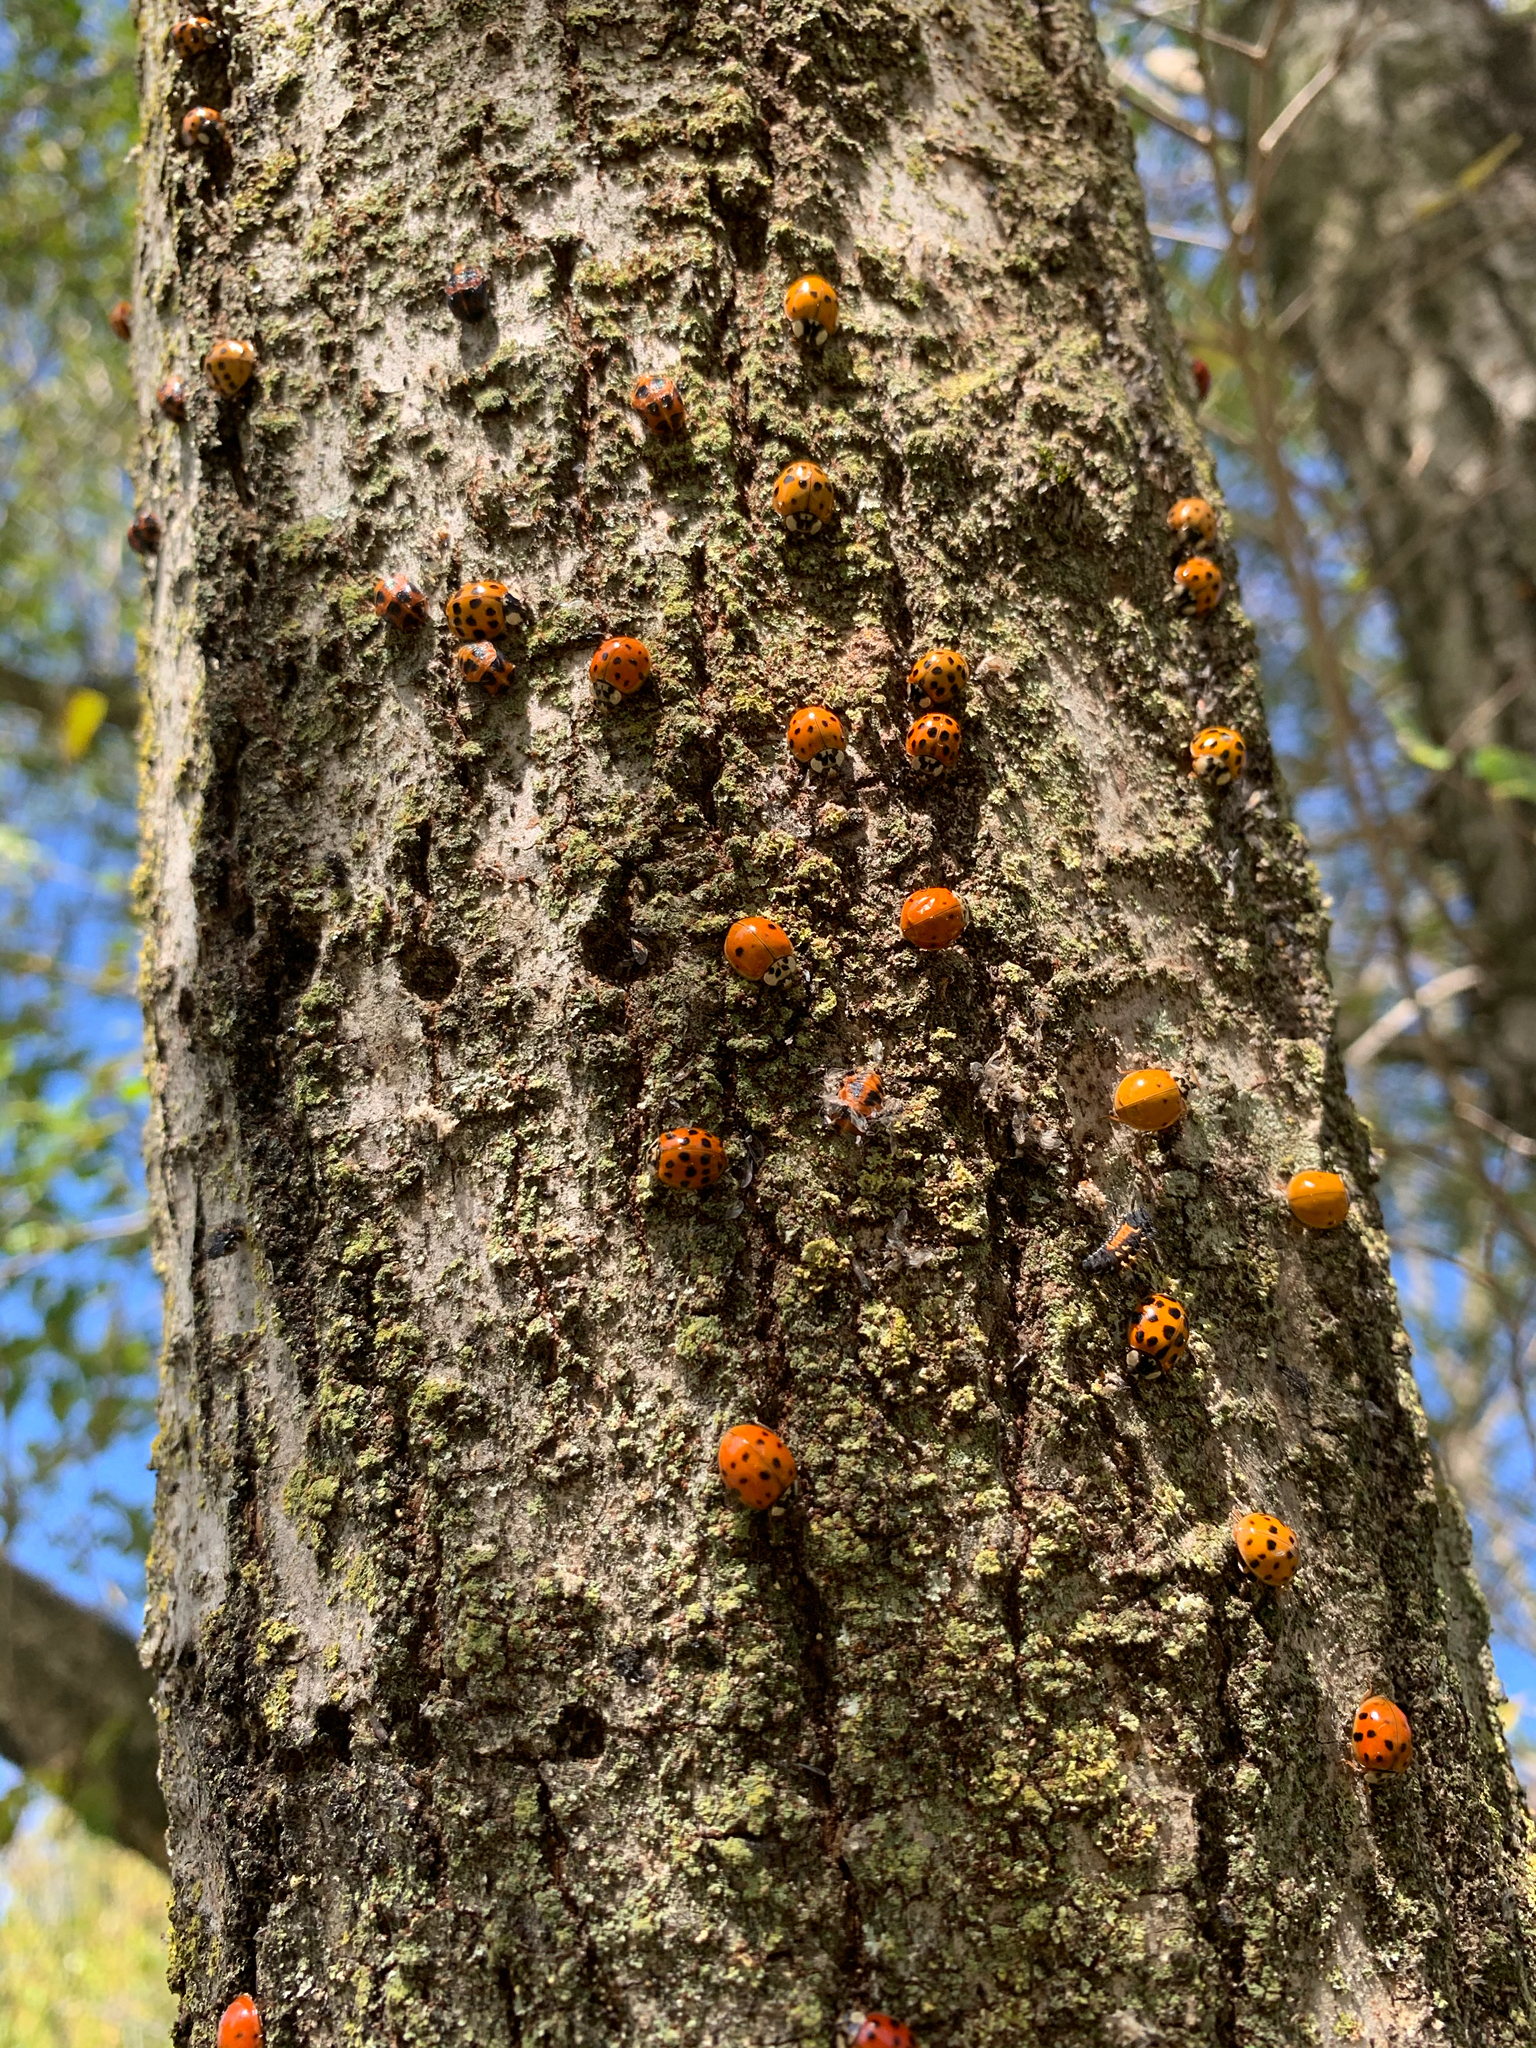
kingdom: Animalia
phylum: Arthropoda
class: Insecta
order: Coleoptera
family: Coccinellidae
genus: Harmonia
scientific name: Harmonia axyridis
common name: Harlequin ladybird
